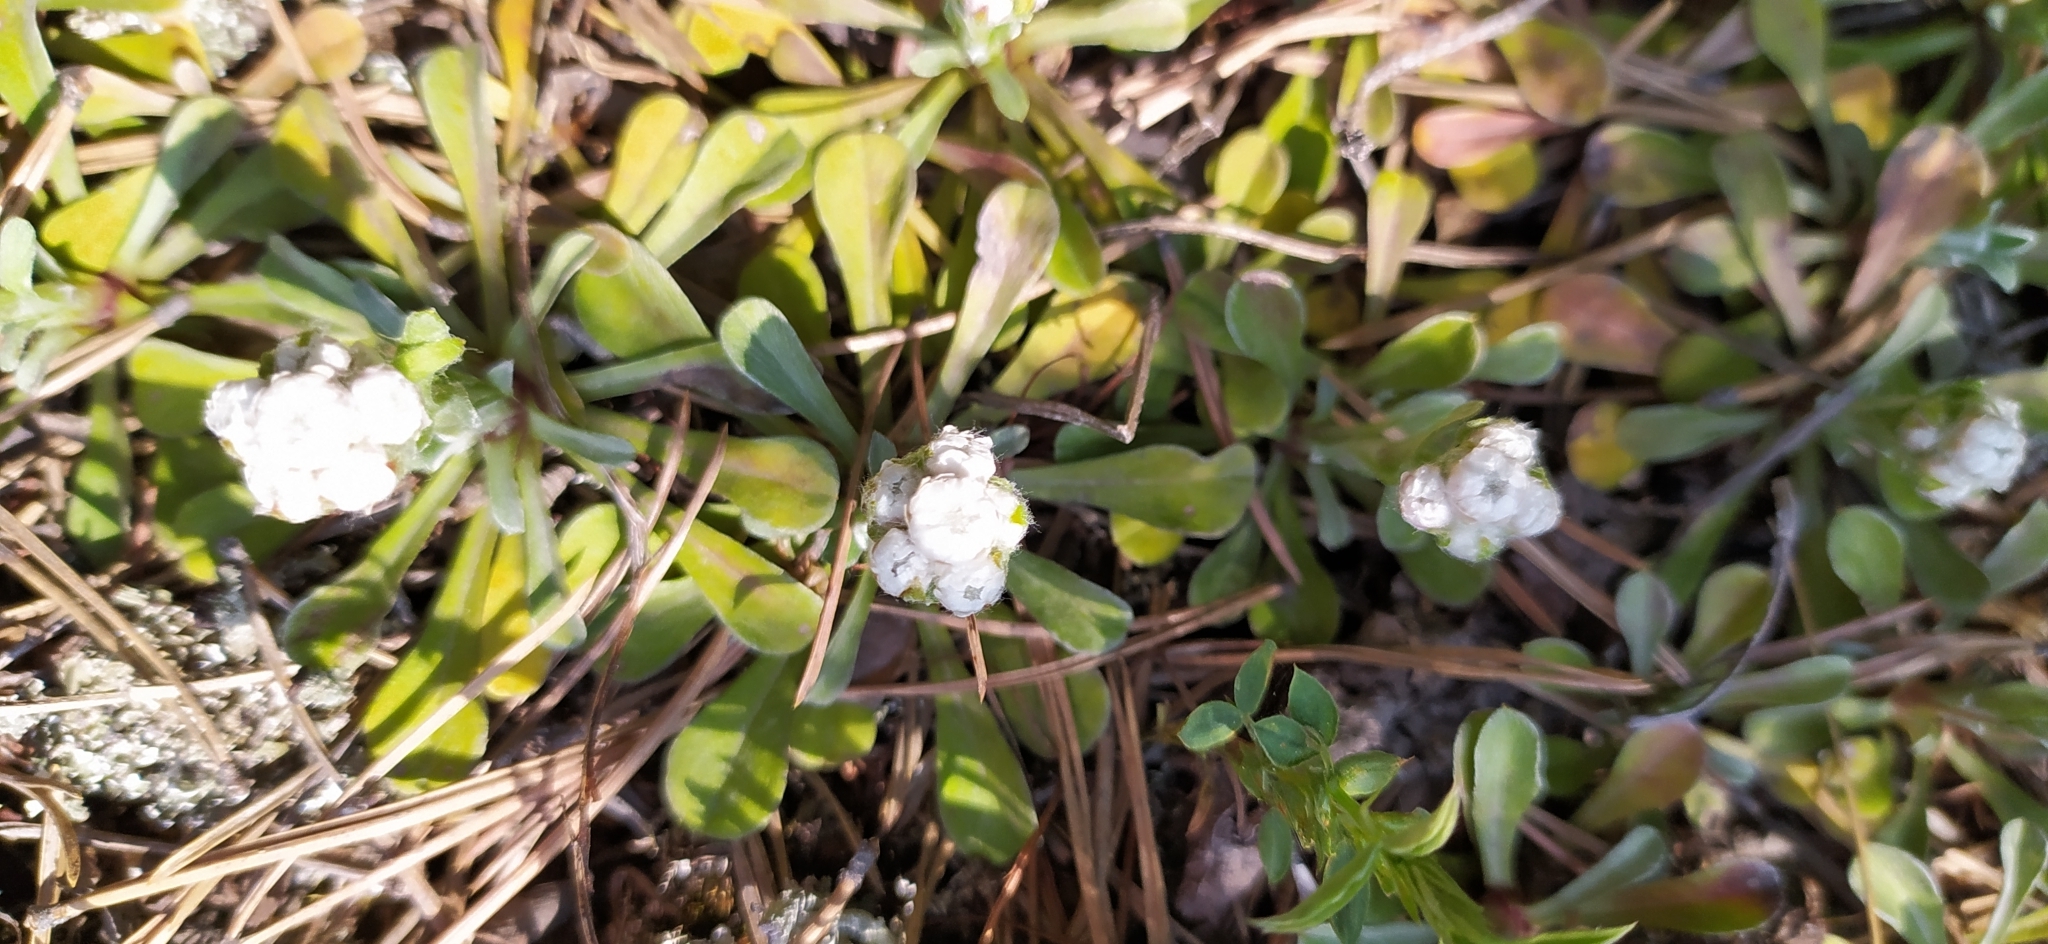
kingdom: Plantae
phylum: Tracheophyta
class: Magnoliopsida
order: Asterales
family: Asteraceae
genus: Antennaria
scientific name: Antennaria dioica
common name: Mountain everlasting
